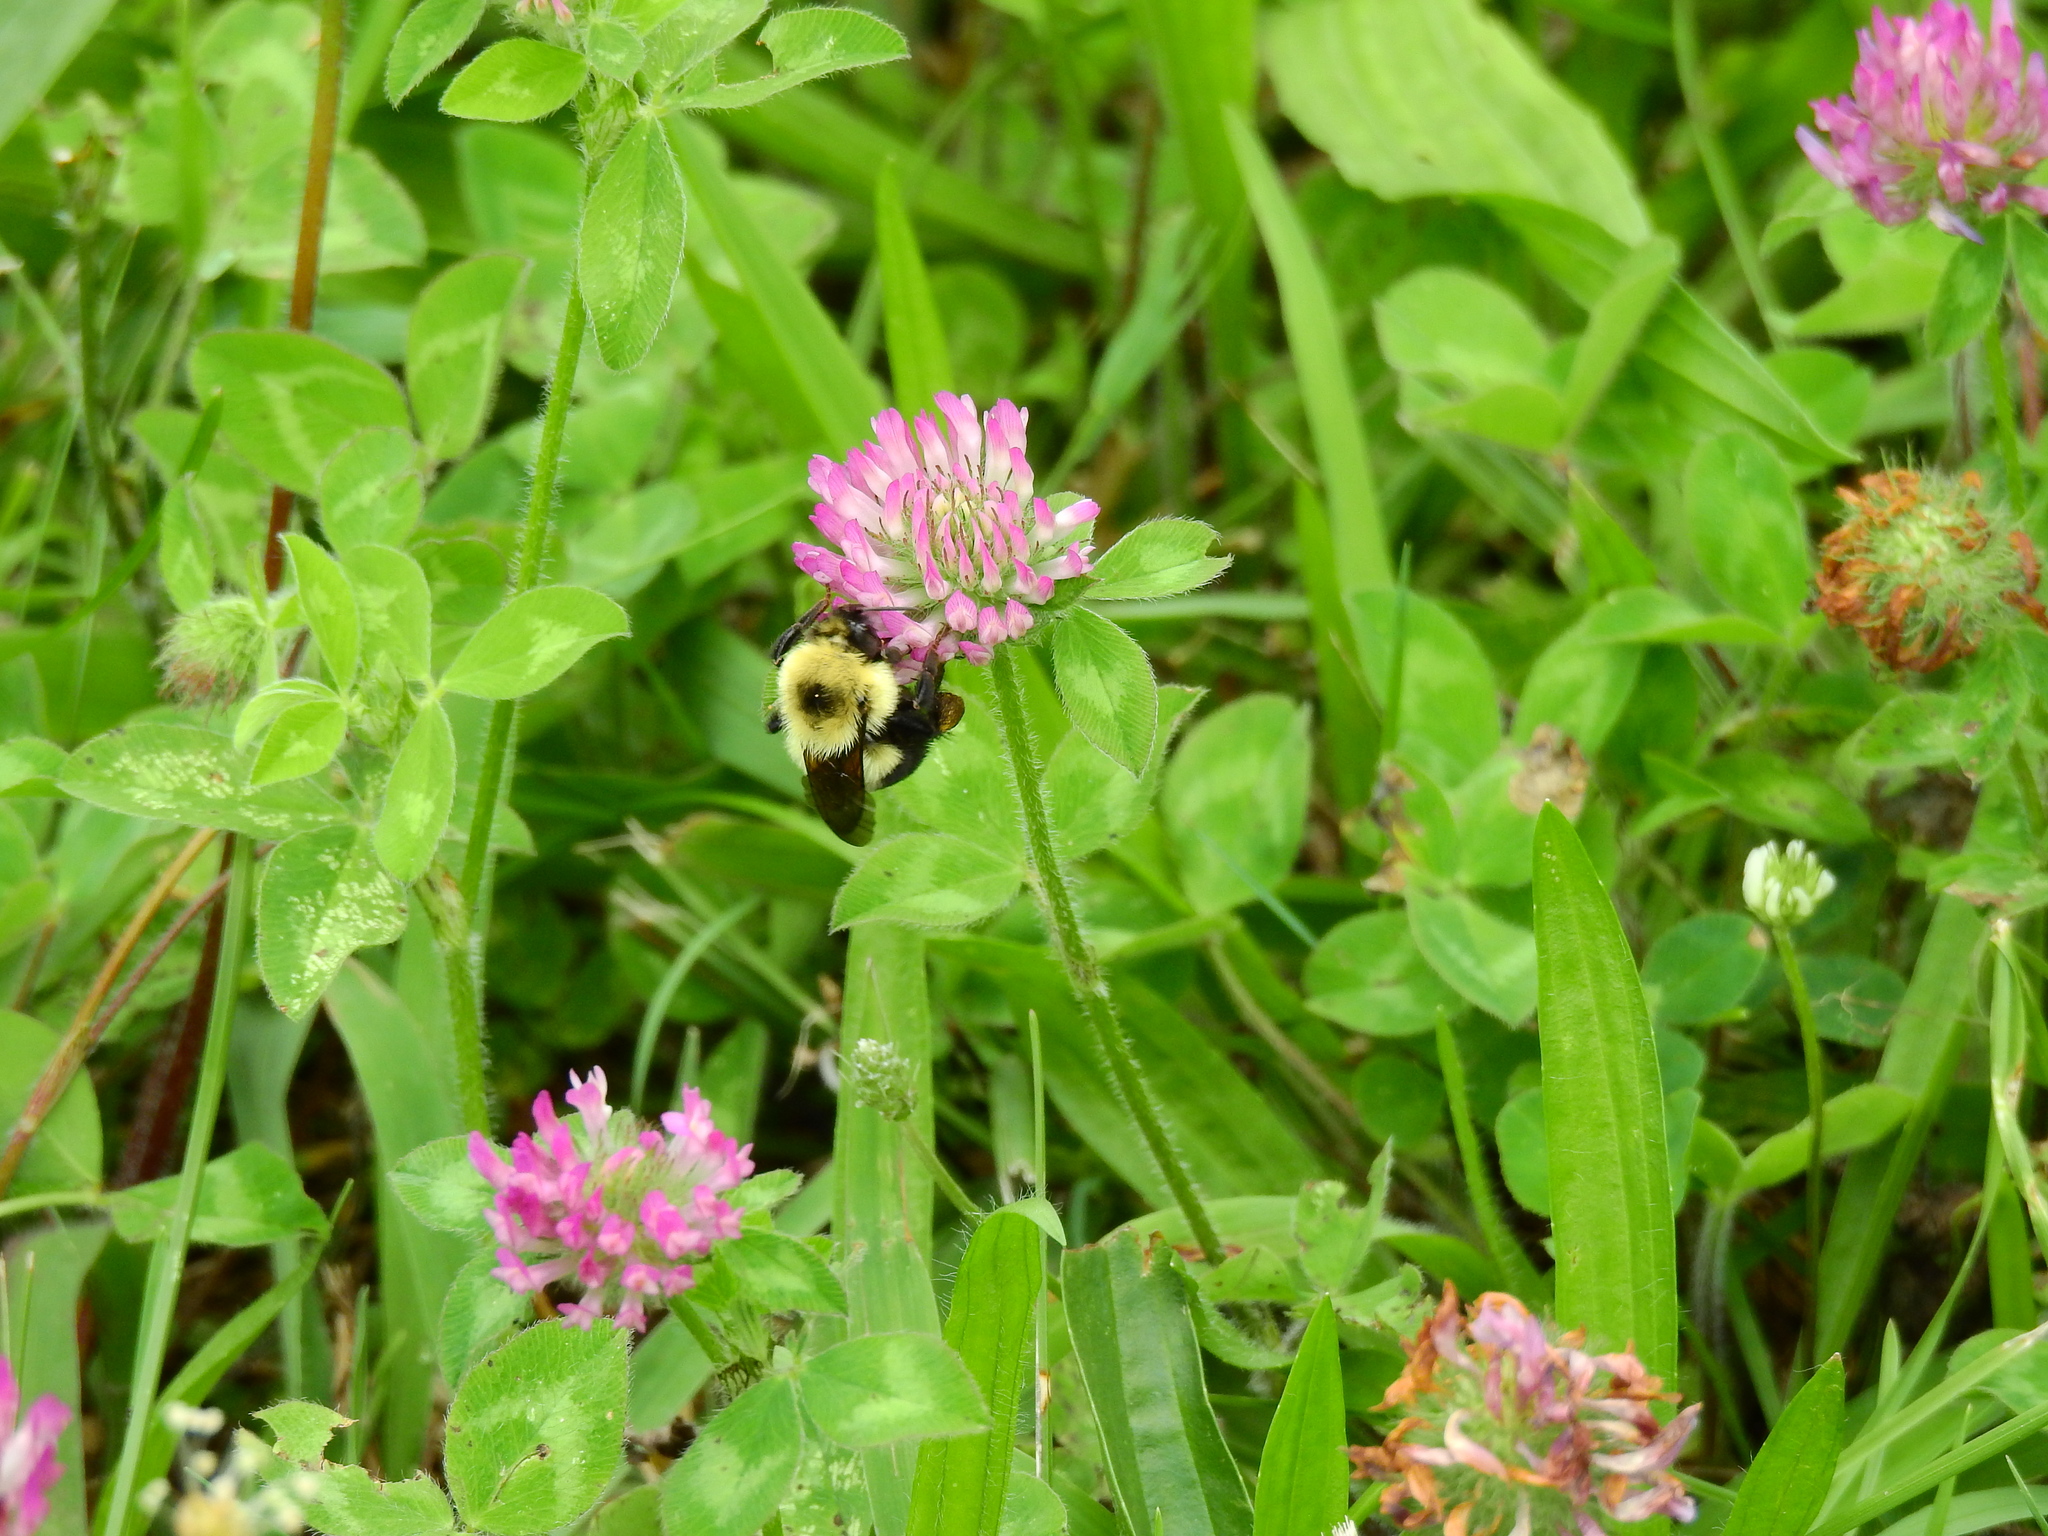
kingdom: Animalia
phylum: Arthropoda
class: Insecta
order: Hymenoptera
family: Apidae
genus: Bombus
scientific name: Bombus bimaculatus
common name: Two-spotted bumble bee
